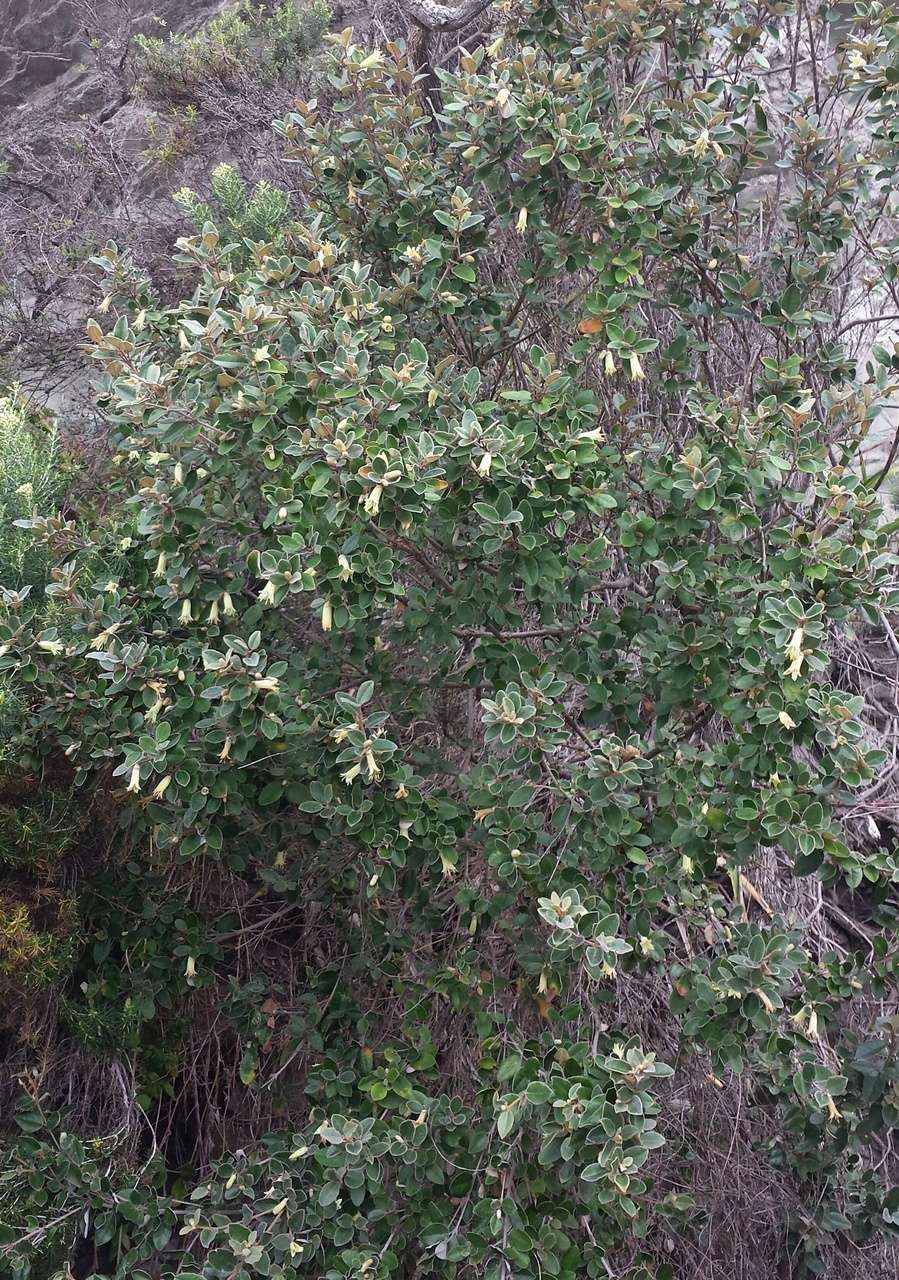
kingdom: Plantae
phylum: Tracheophyta
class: Magnoliopsida
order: Sapindales
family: Rutaceae
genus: Correa
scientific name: Correa backhouseana
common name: Tasmanian-fuchsia
